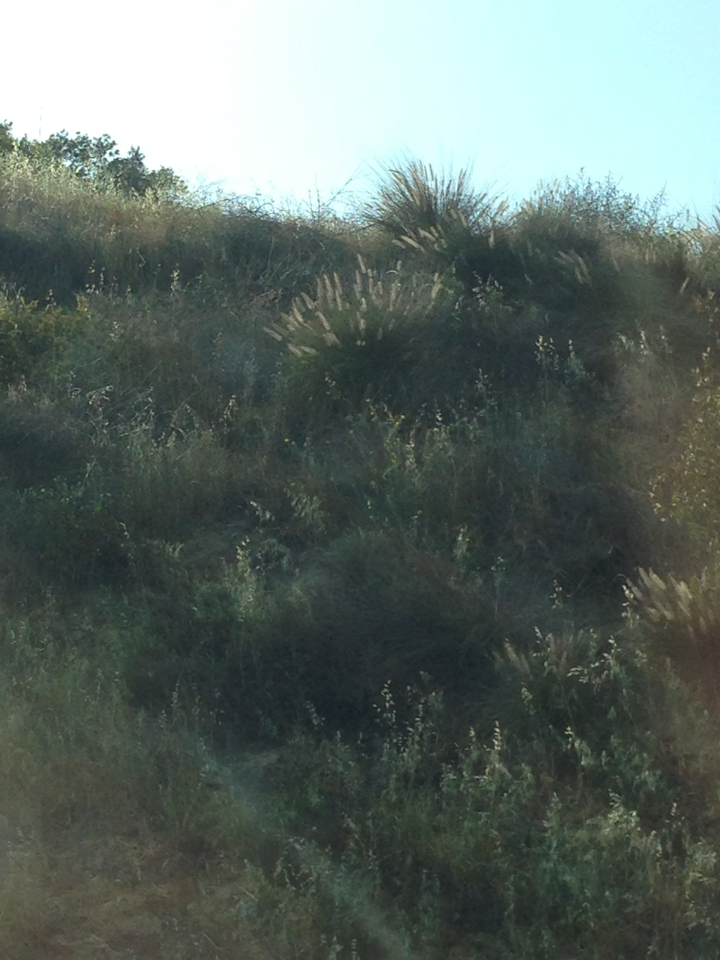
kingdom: Plantae
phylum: Tracheophyta
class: Liliopsida
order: Poales
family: Poaceae
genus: Cenchrus
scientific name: Cenchrus setaceus
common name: Crimson fountaingrass
